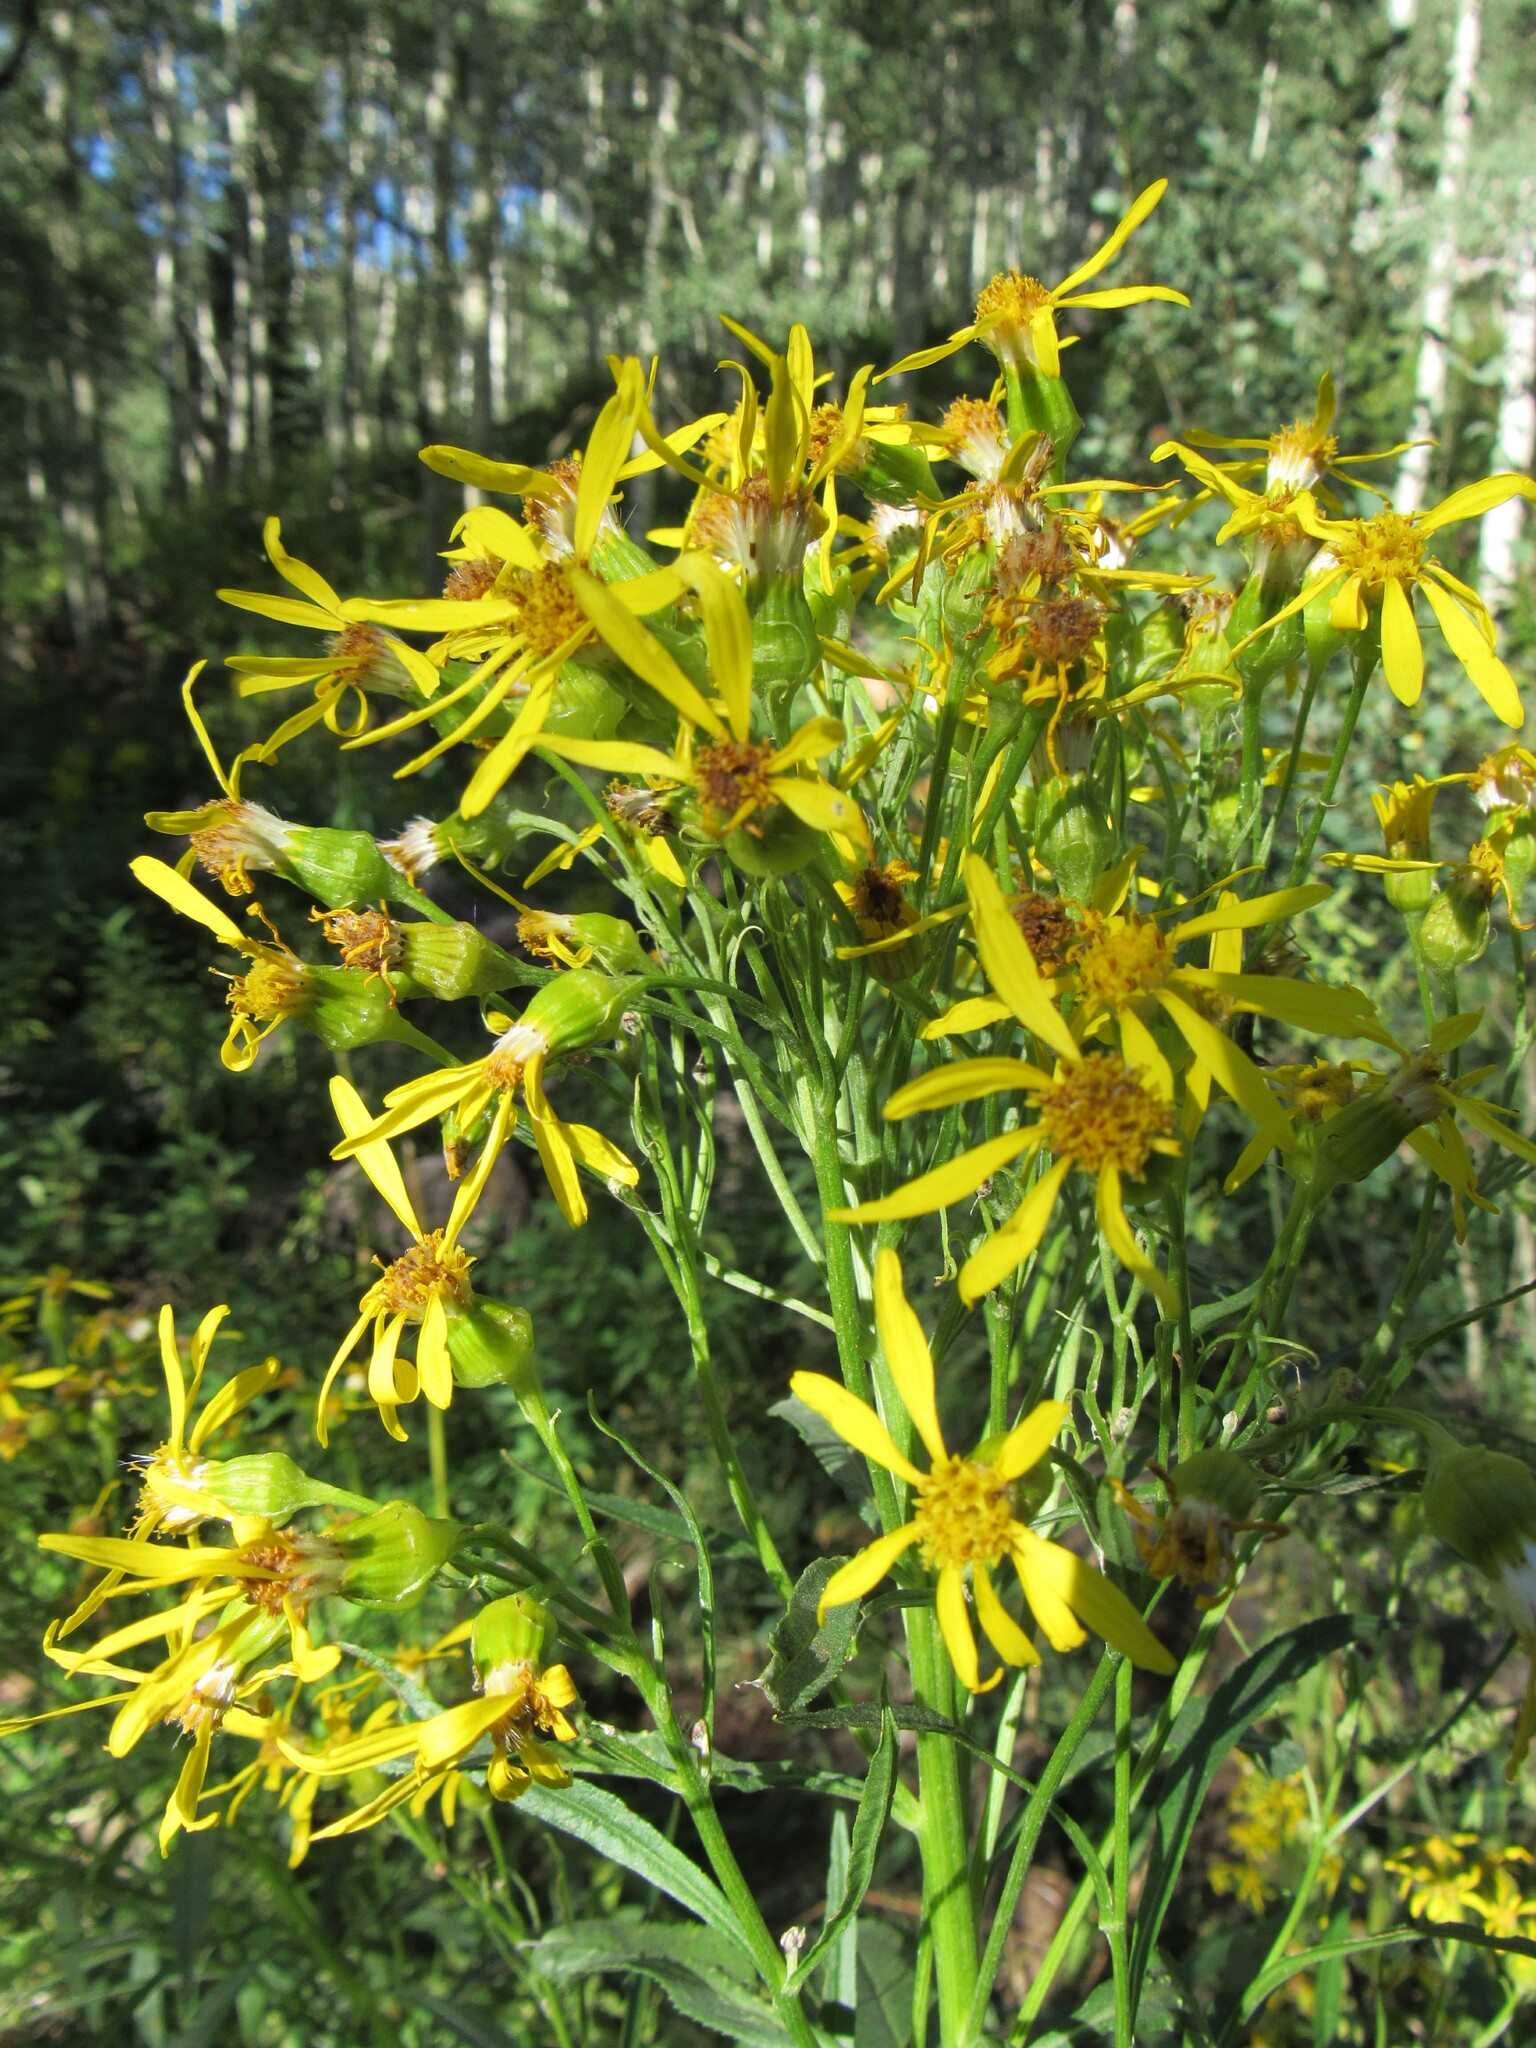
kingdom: Plantae
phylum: Tracheophyta
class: Magnoliopsida
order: Asterales
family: Asteraceae
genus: Senecio
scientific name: Senecio serra
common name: Tall ragwort
